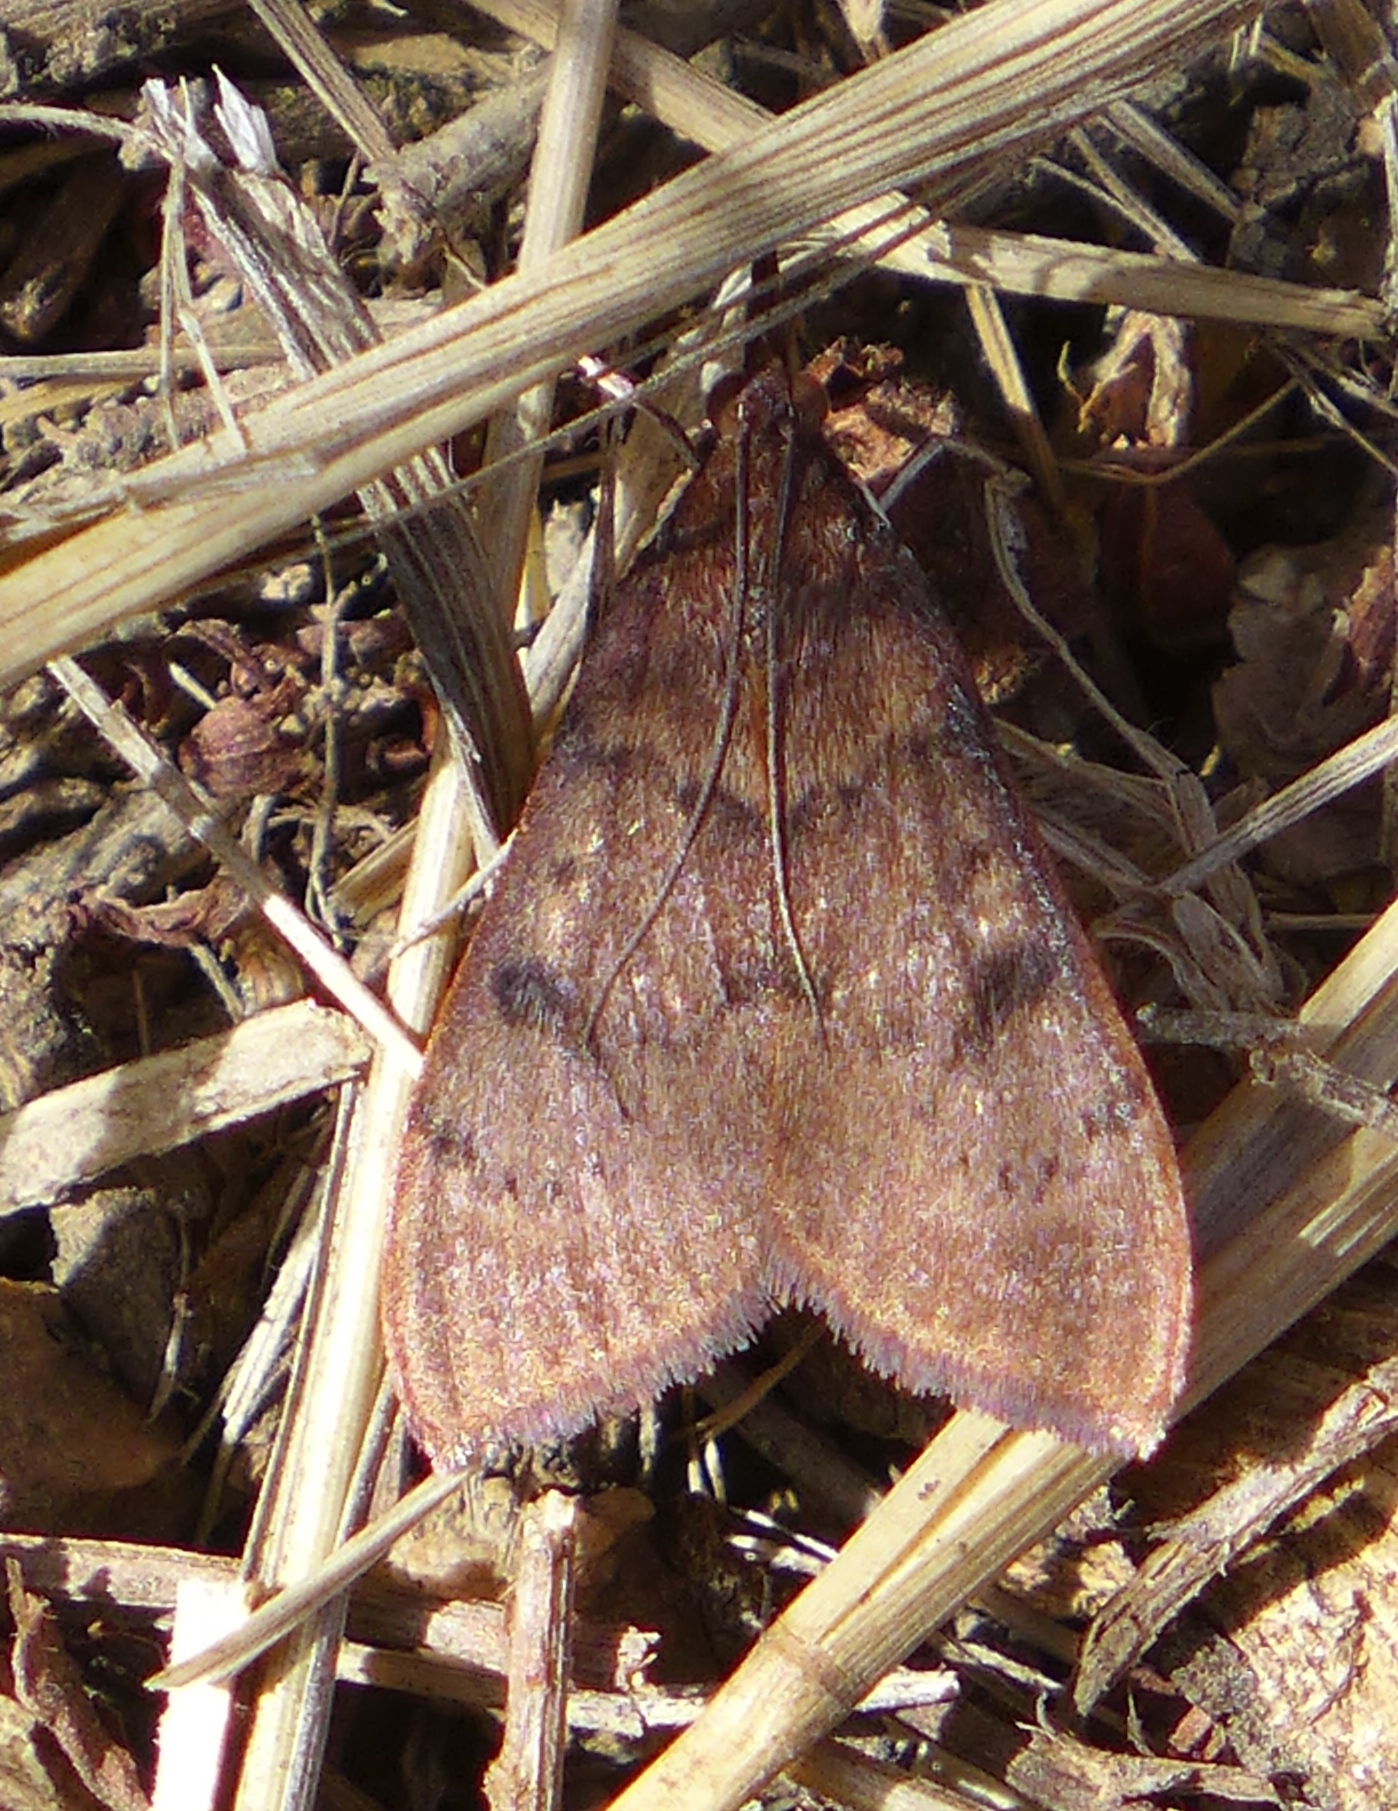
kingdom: Animalia
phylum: Arthropoda
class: Insecta
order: Lepidoptera
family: Crambidae
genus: Uresiphita
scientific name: Uresiphita reversalis
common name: Genista broom moth
